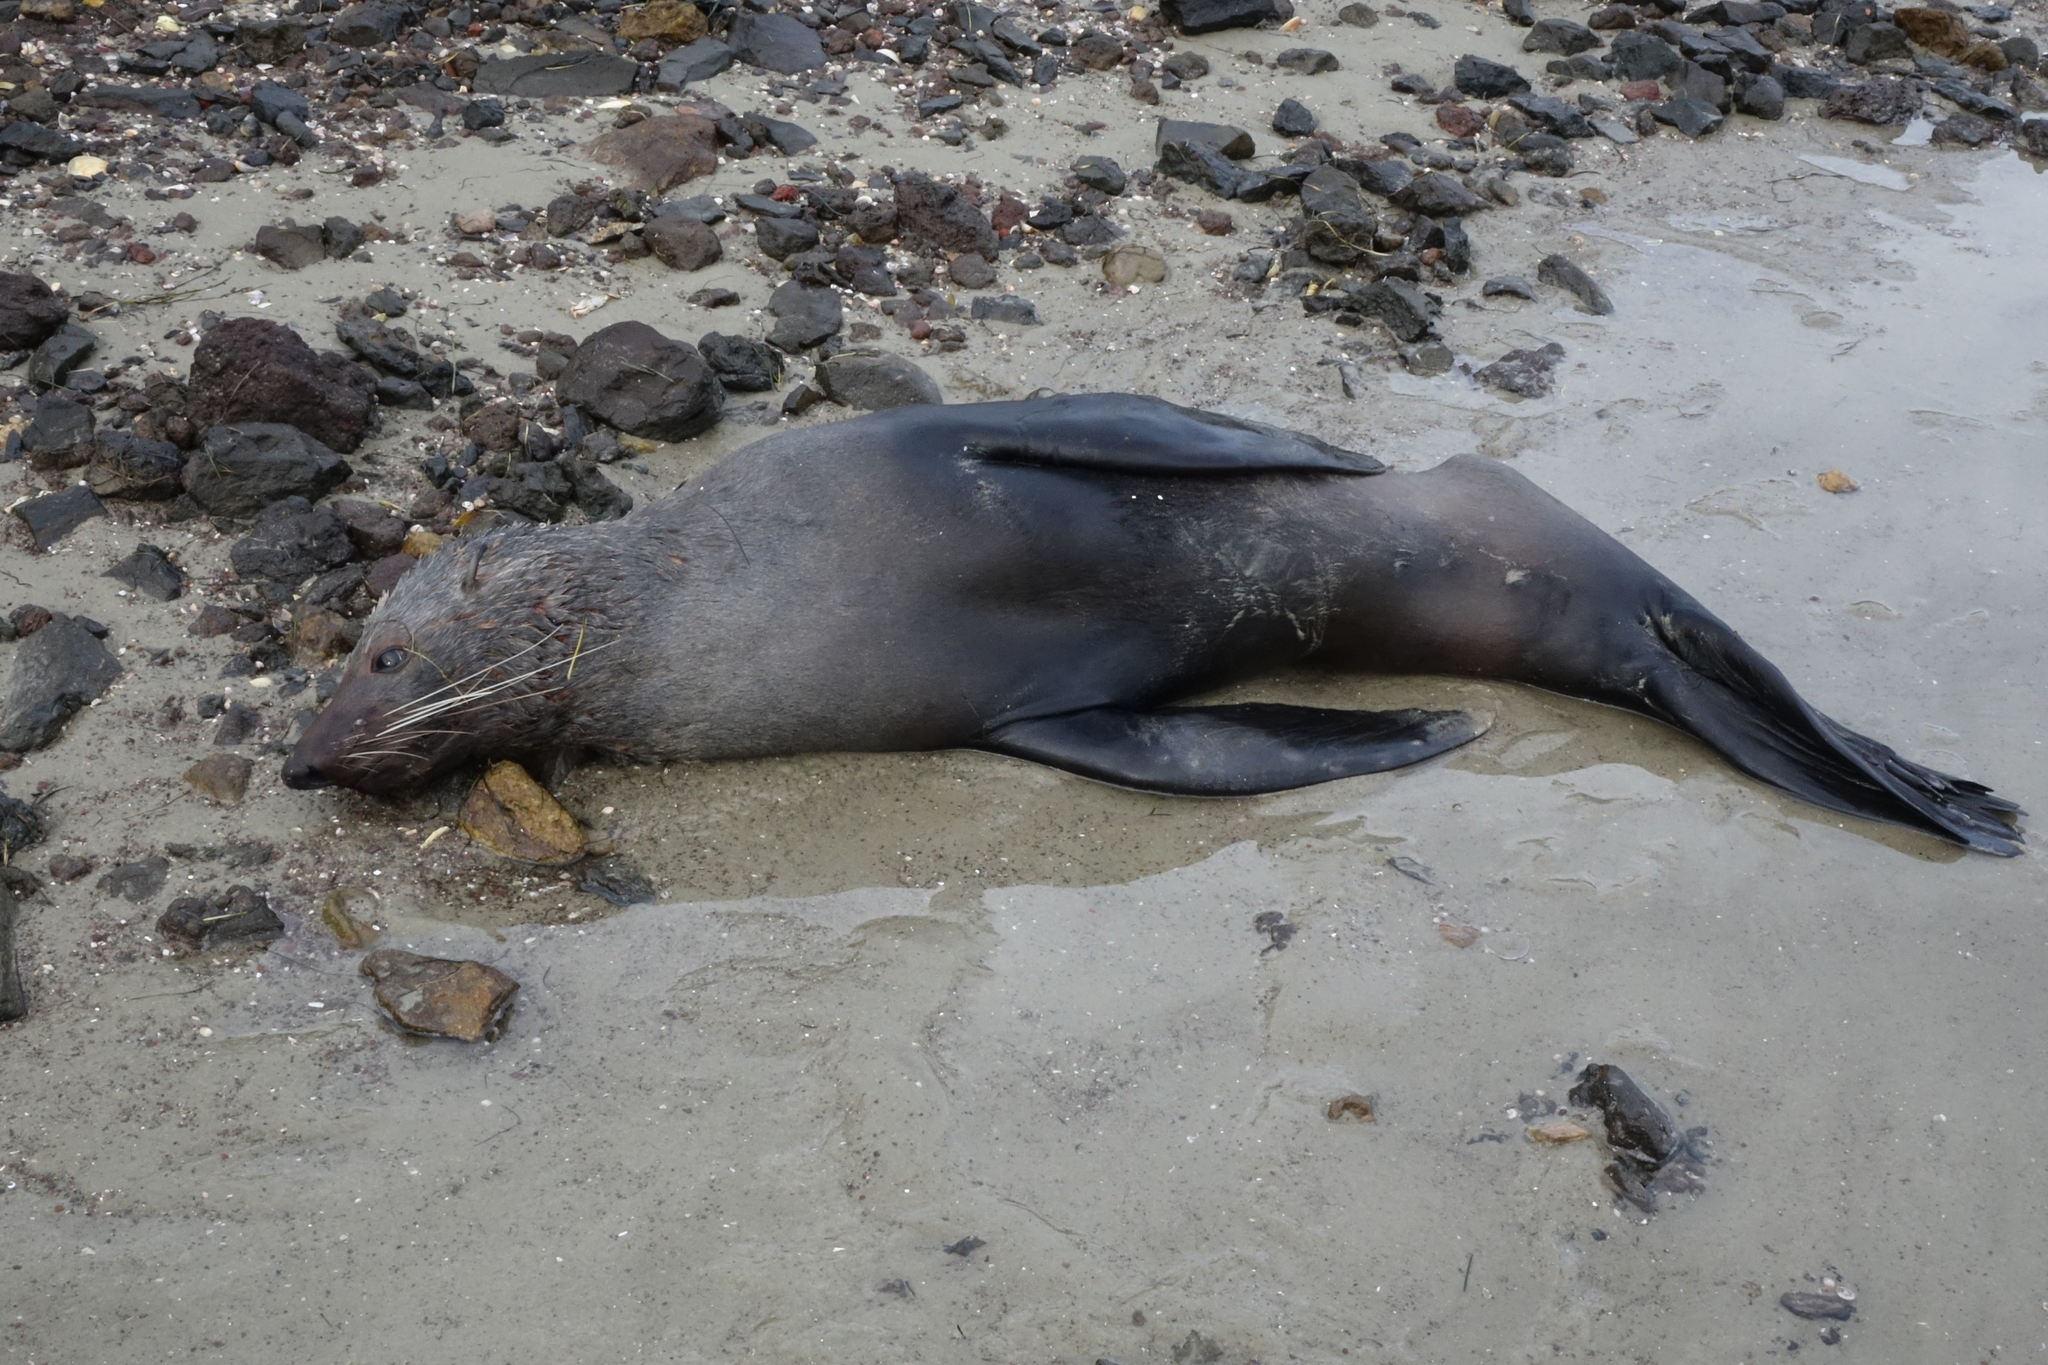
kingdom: Animalia
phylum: Chordata
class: Mammalia
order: Carnivora
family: Otariidae
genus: Arctocephalus
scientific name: Arctocephalus forsteri
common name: New zealand fur seal
